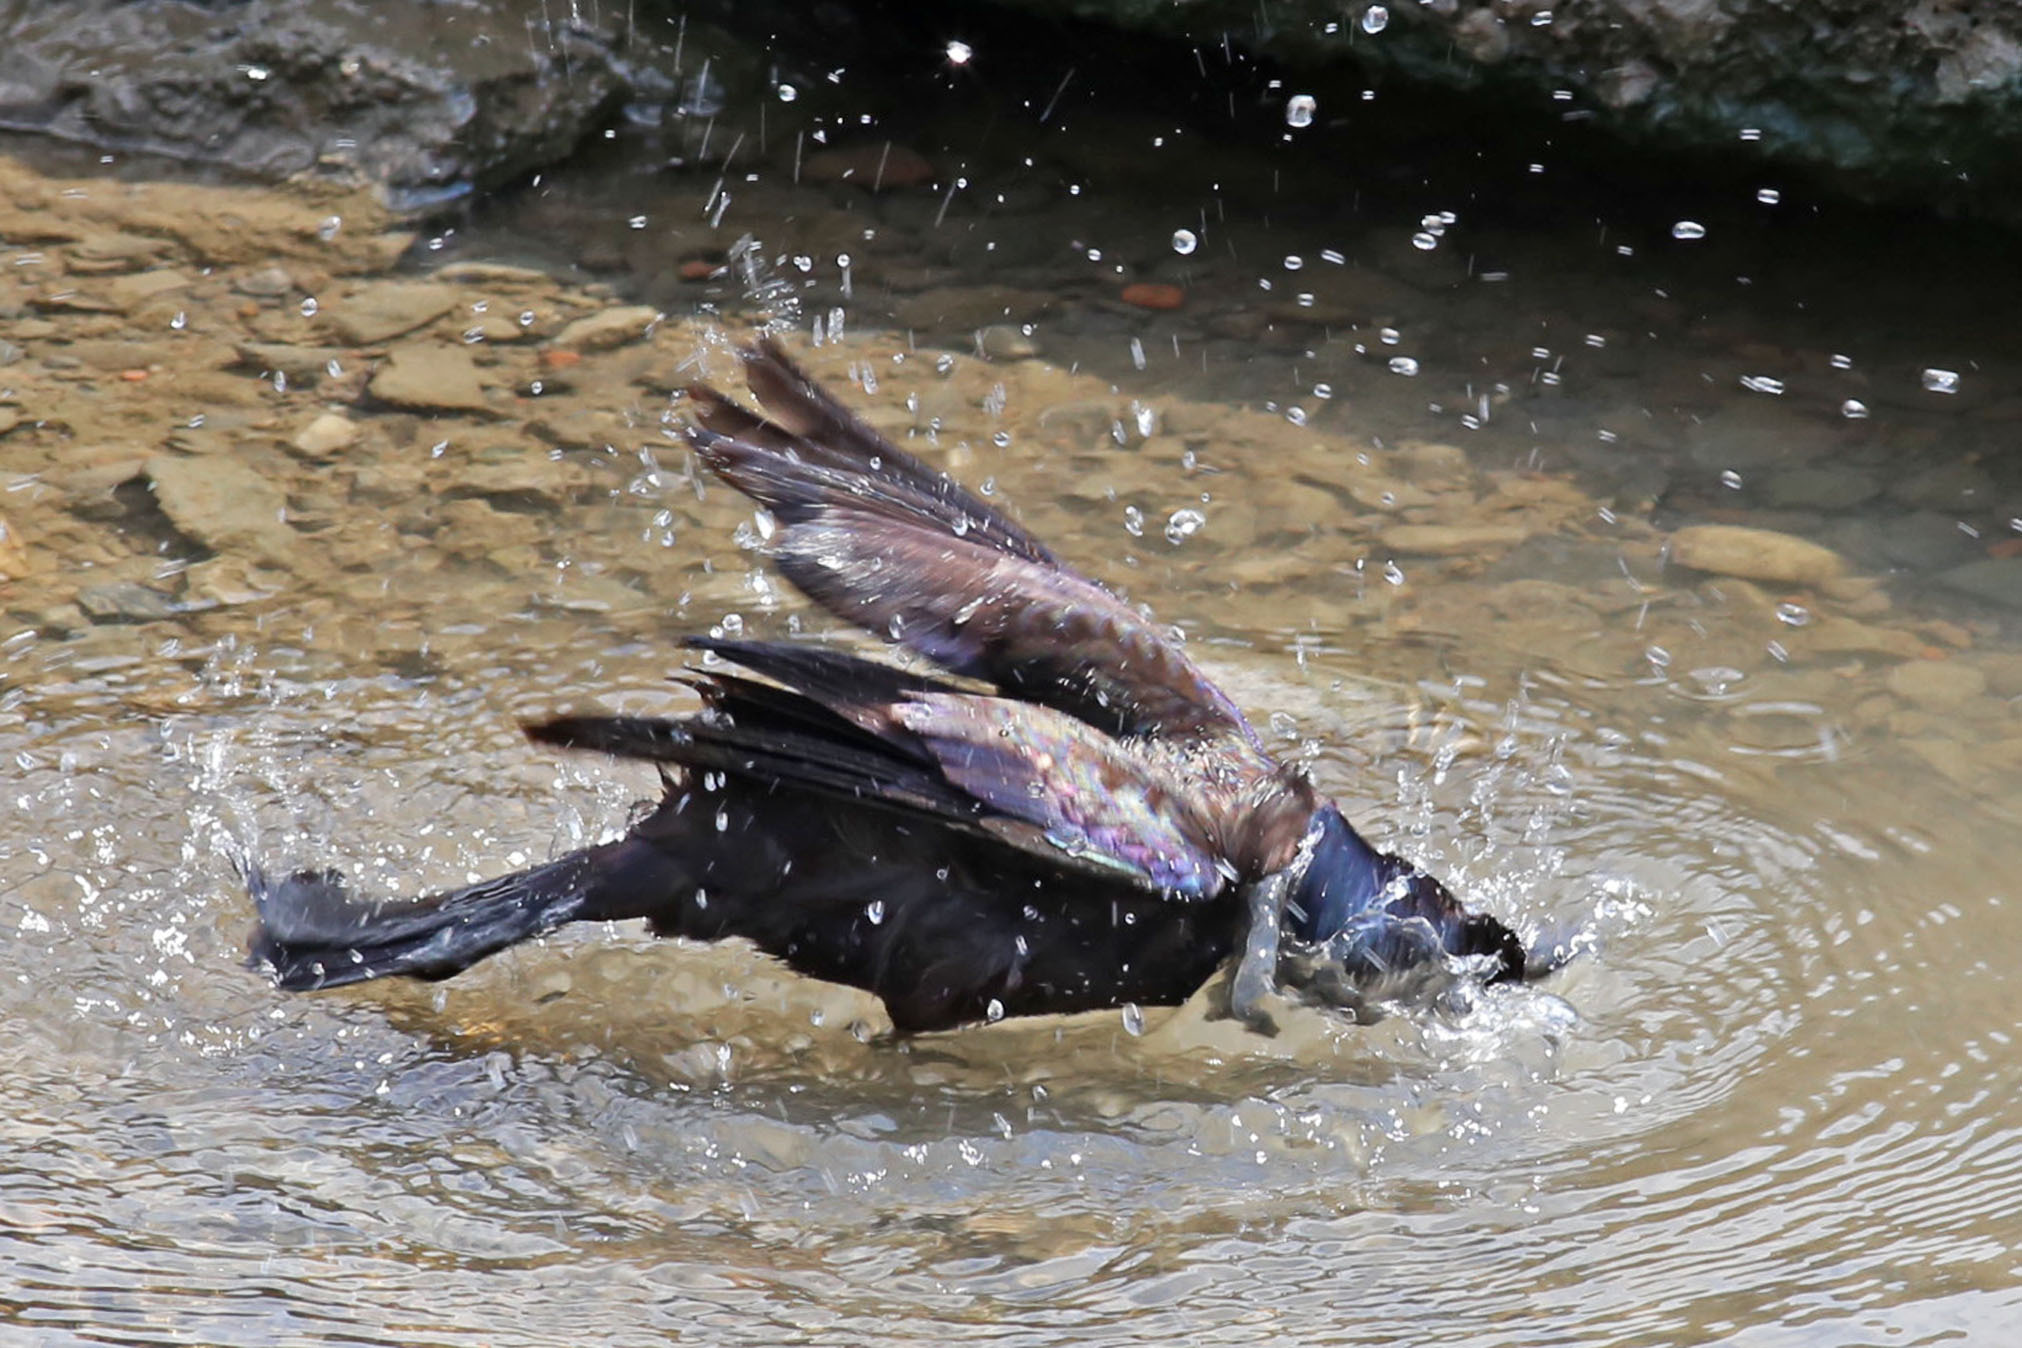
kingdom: Animalia
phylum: Chordata
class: Aves
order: Passeriformes
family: Icteridae
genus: Quiscalus
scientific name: Quiscalus quiscula
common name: Common grackle
